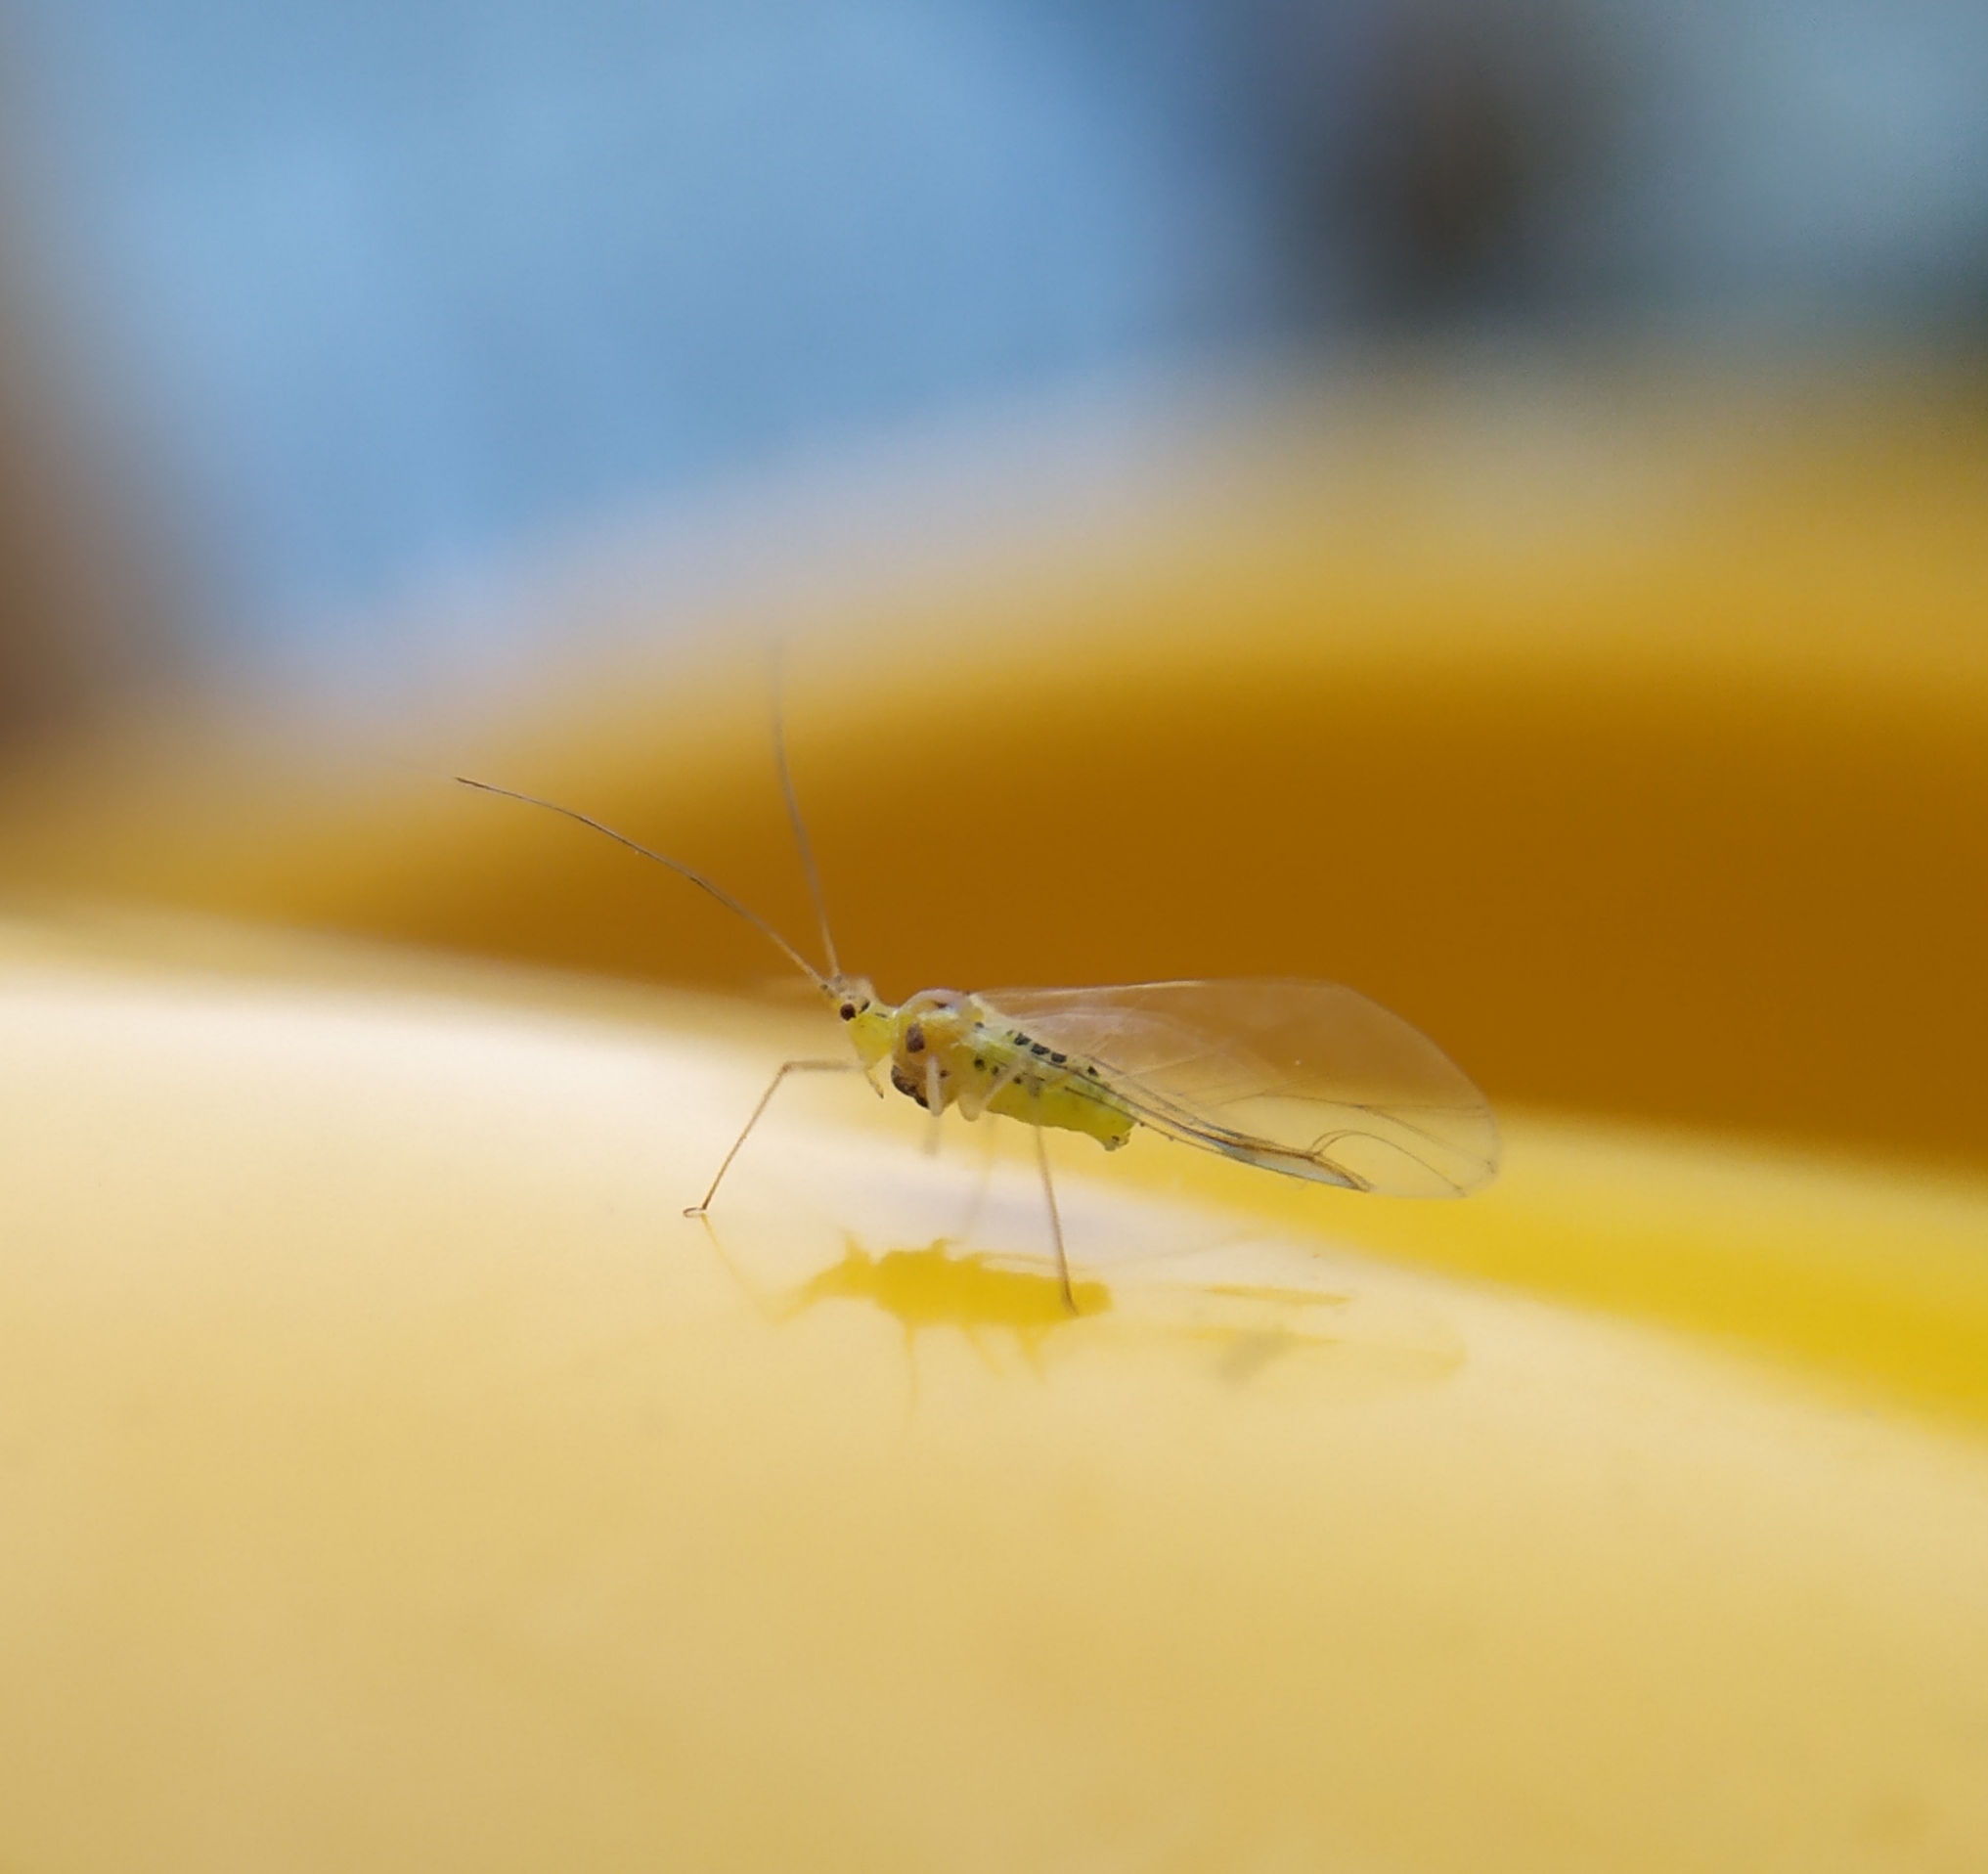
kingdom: Animalia
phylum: Arthropoda
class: Insecta
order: Hemiptera
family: Aphididae
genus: Drepanosiphum
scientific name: Drepanosiphum platanoidis
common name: Common sycamore aphid
